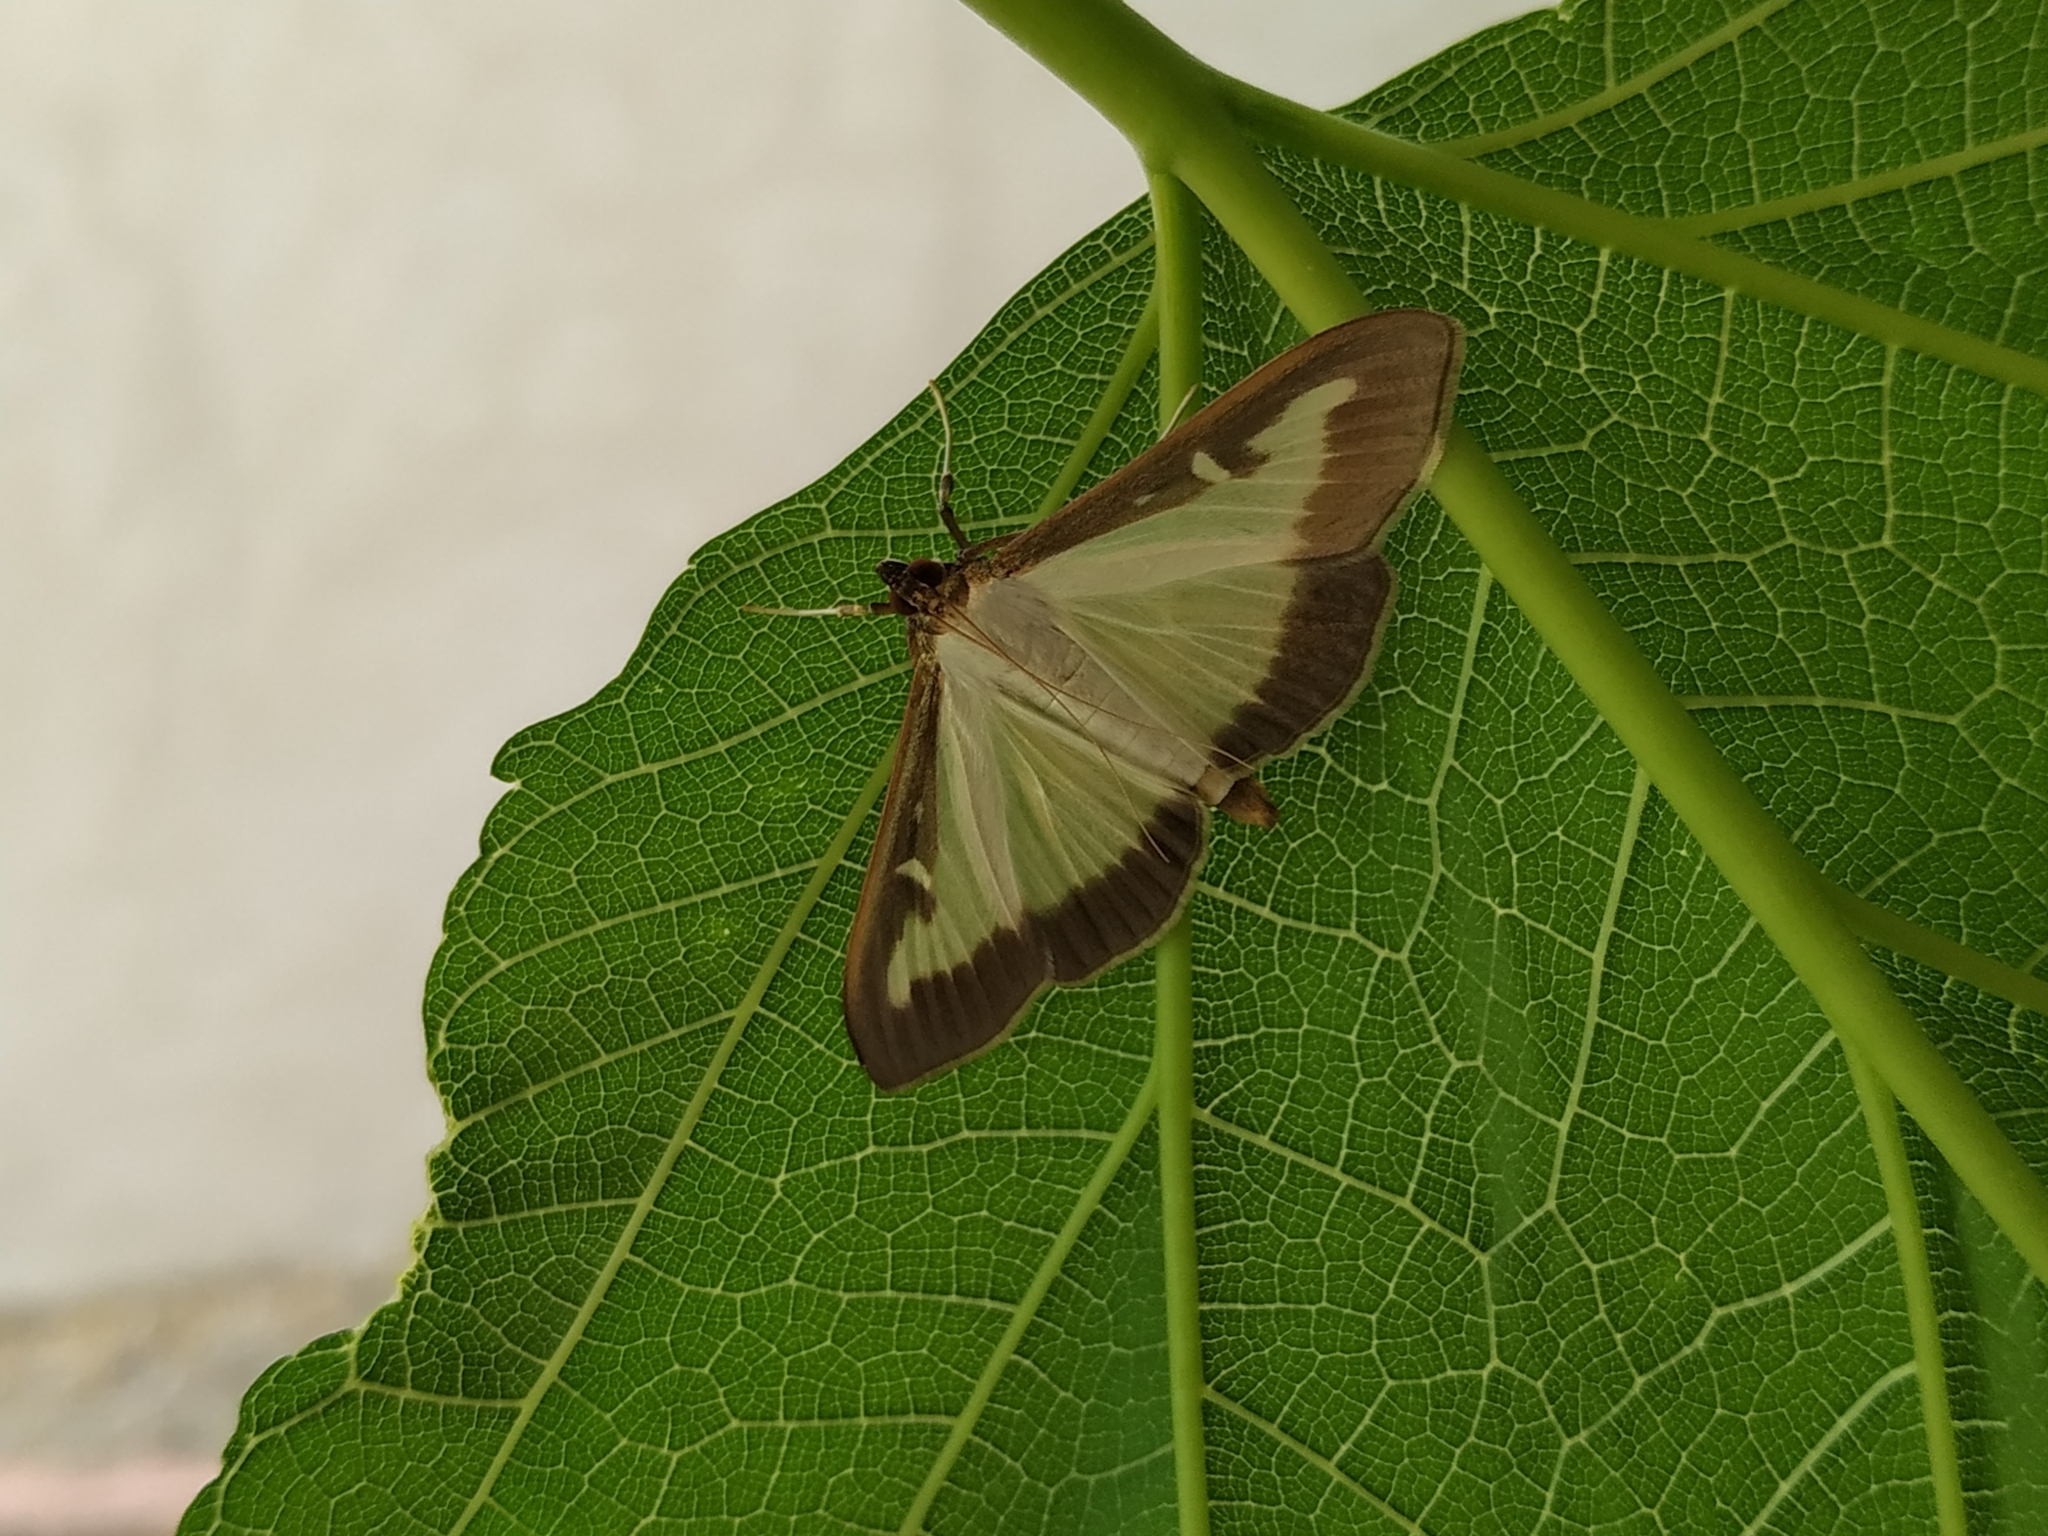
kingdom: Animalia
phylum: Arthropoda
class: Insecta
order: Lepidoptera
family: Crambidae
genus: Cydalima
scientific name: Cydalima perspectalis
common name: Box tree moth
